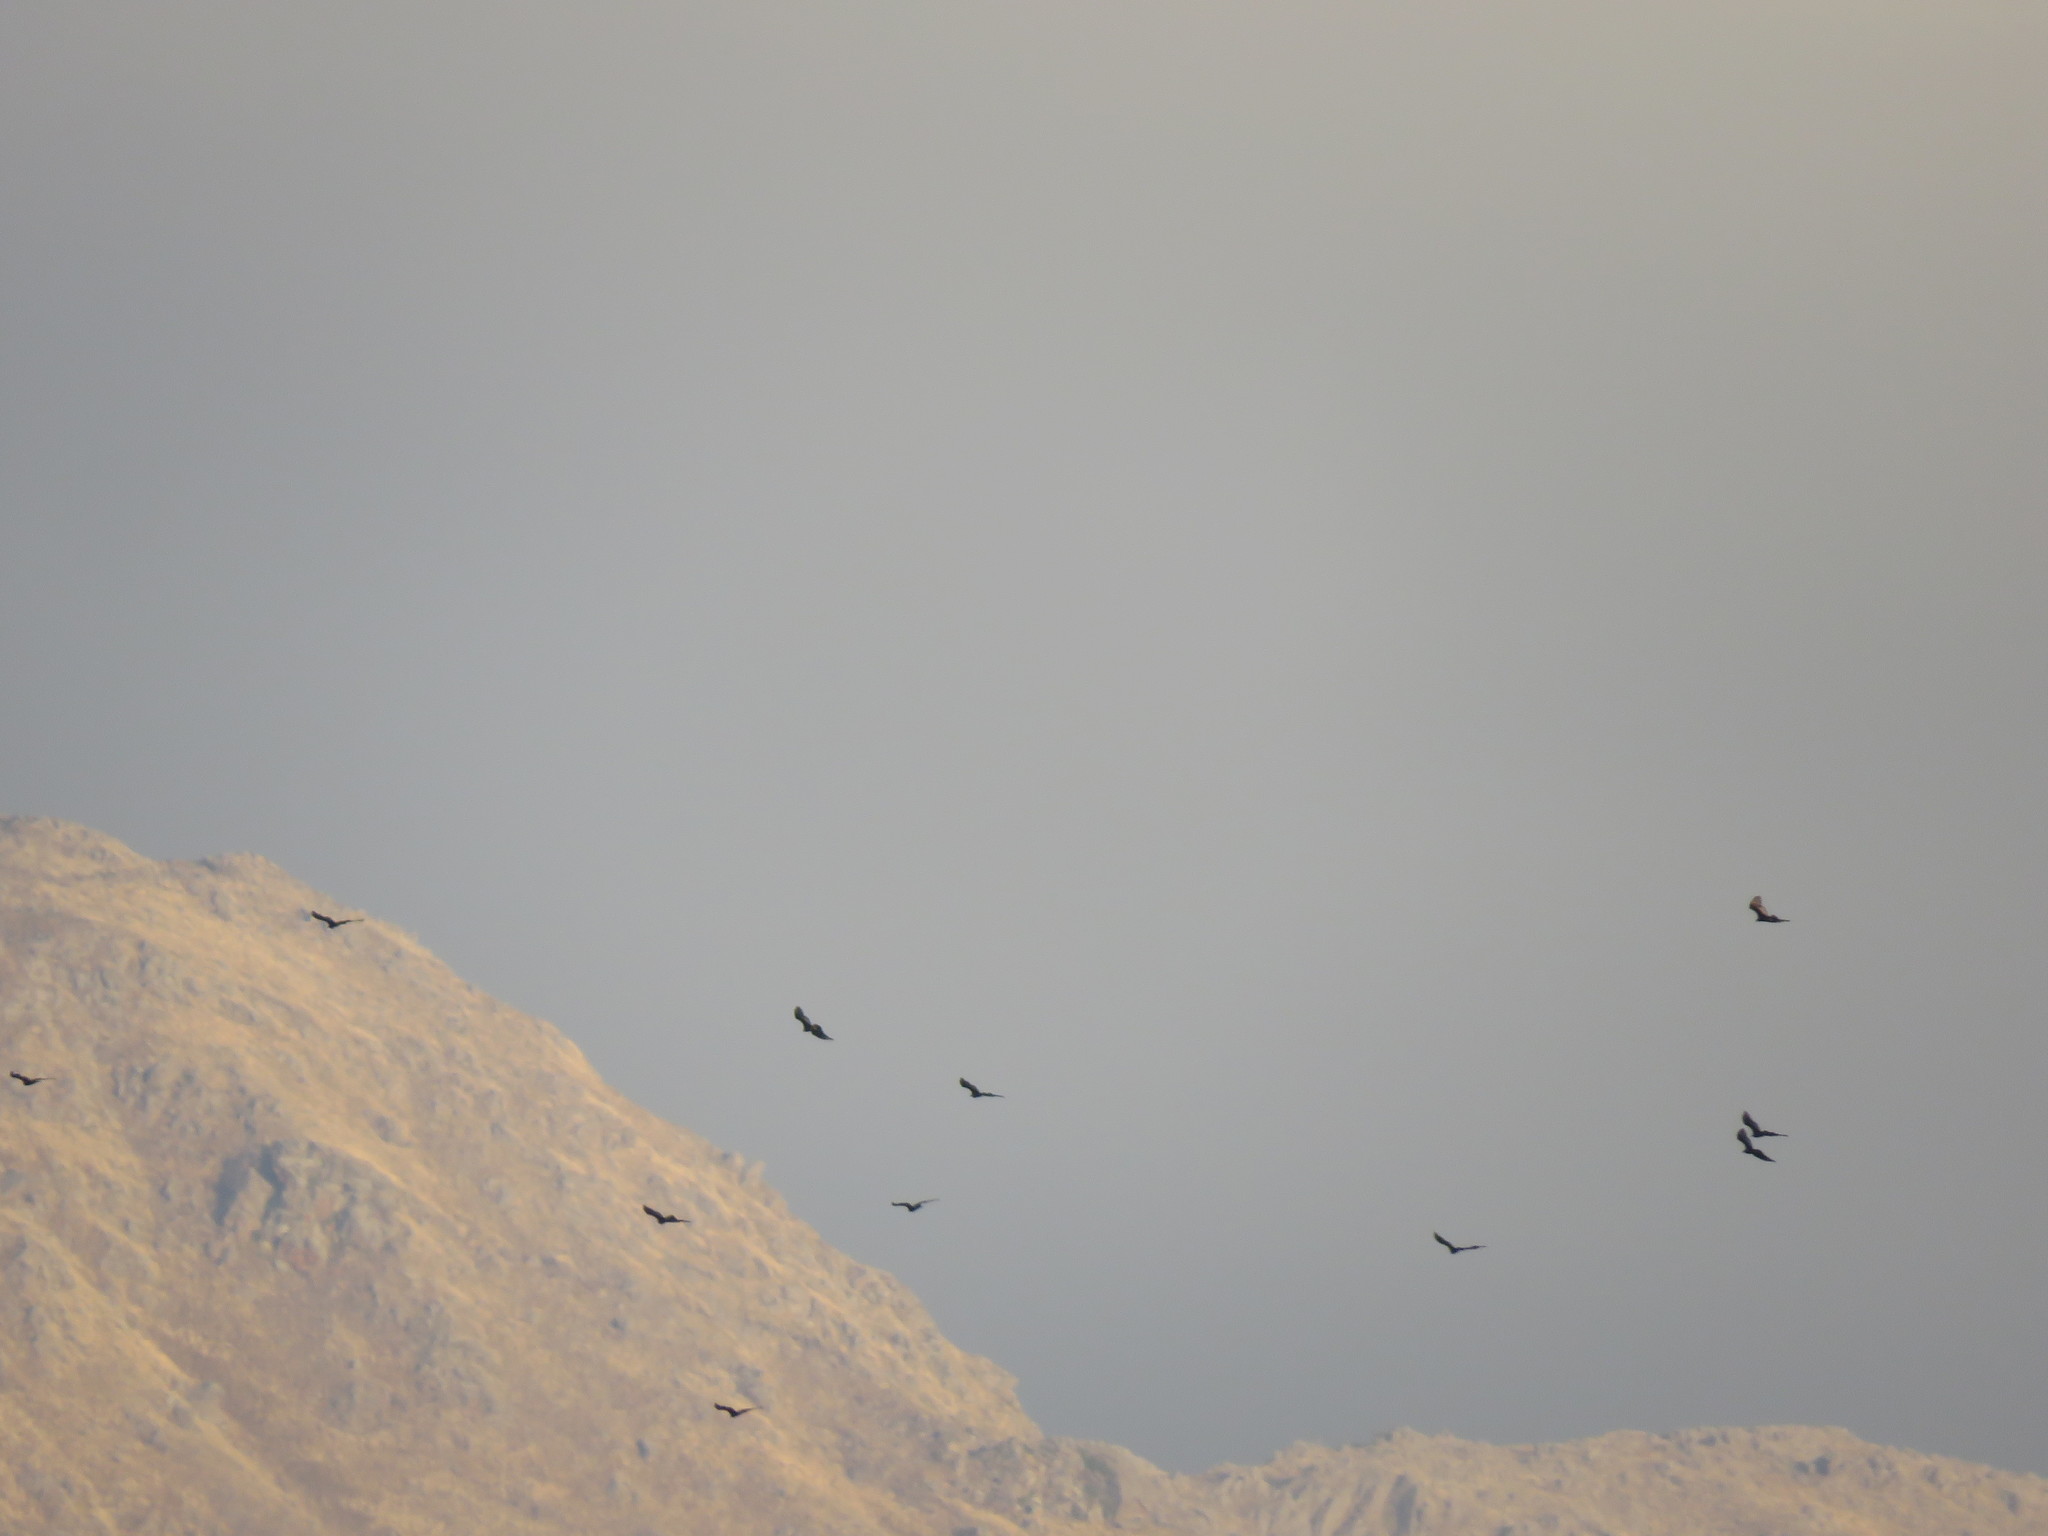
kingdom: Animalia
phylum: Chordata
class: Aves
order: Accipitriformes
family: Cathartidae
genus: Coragyps
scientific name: Coragyps atratus
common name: Black vulture
